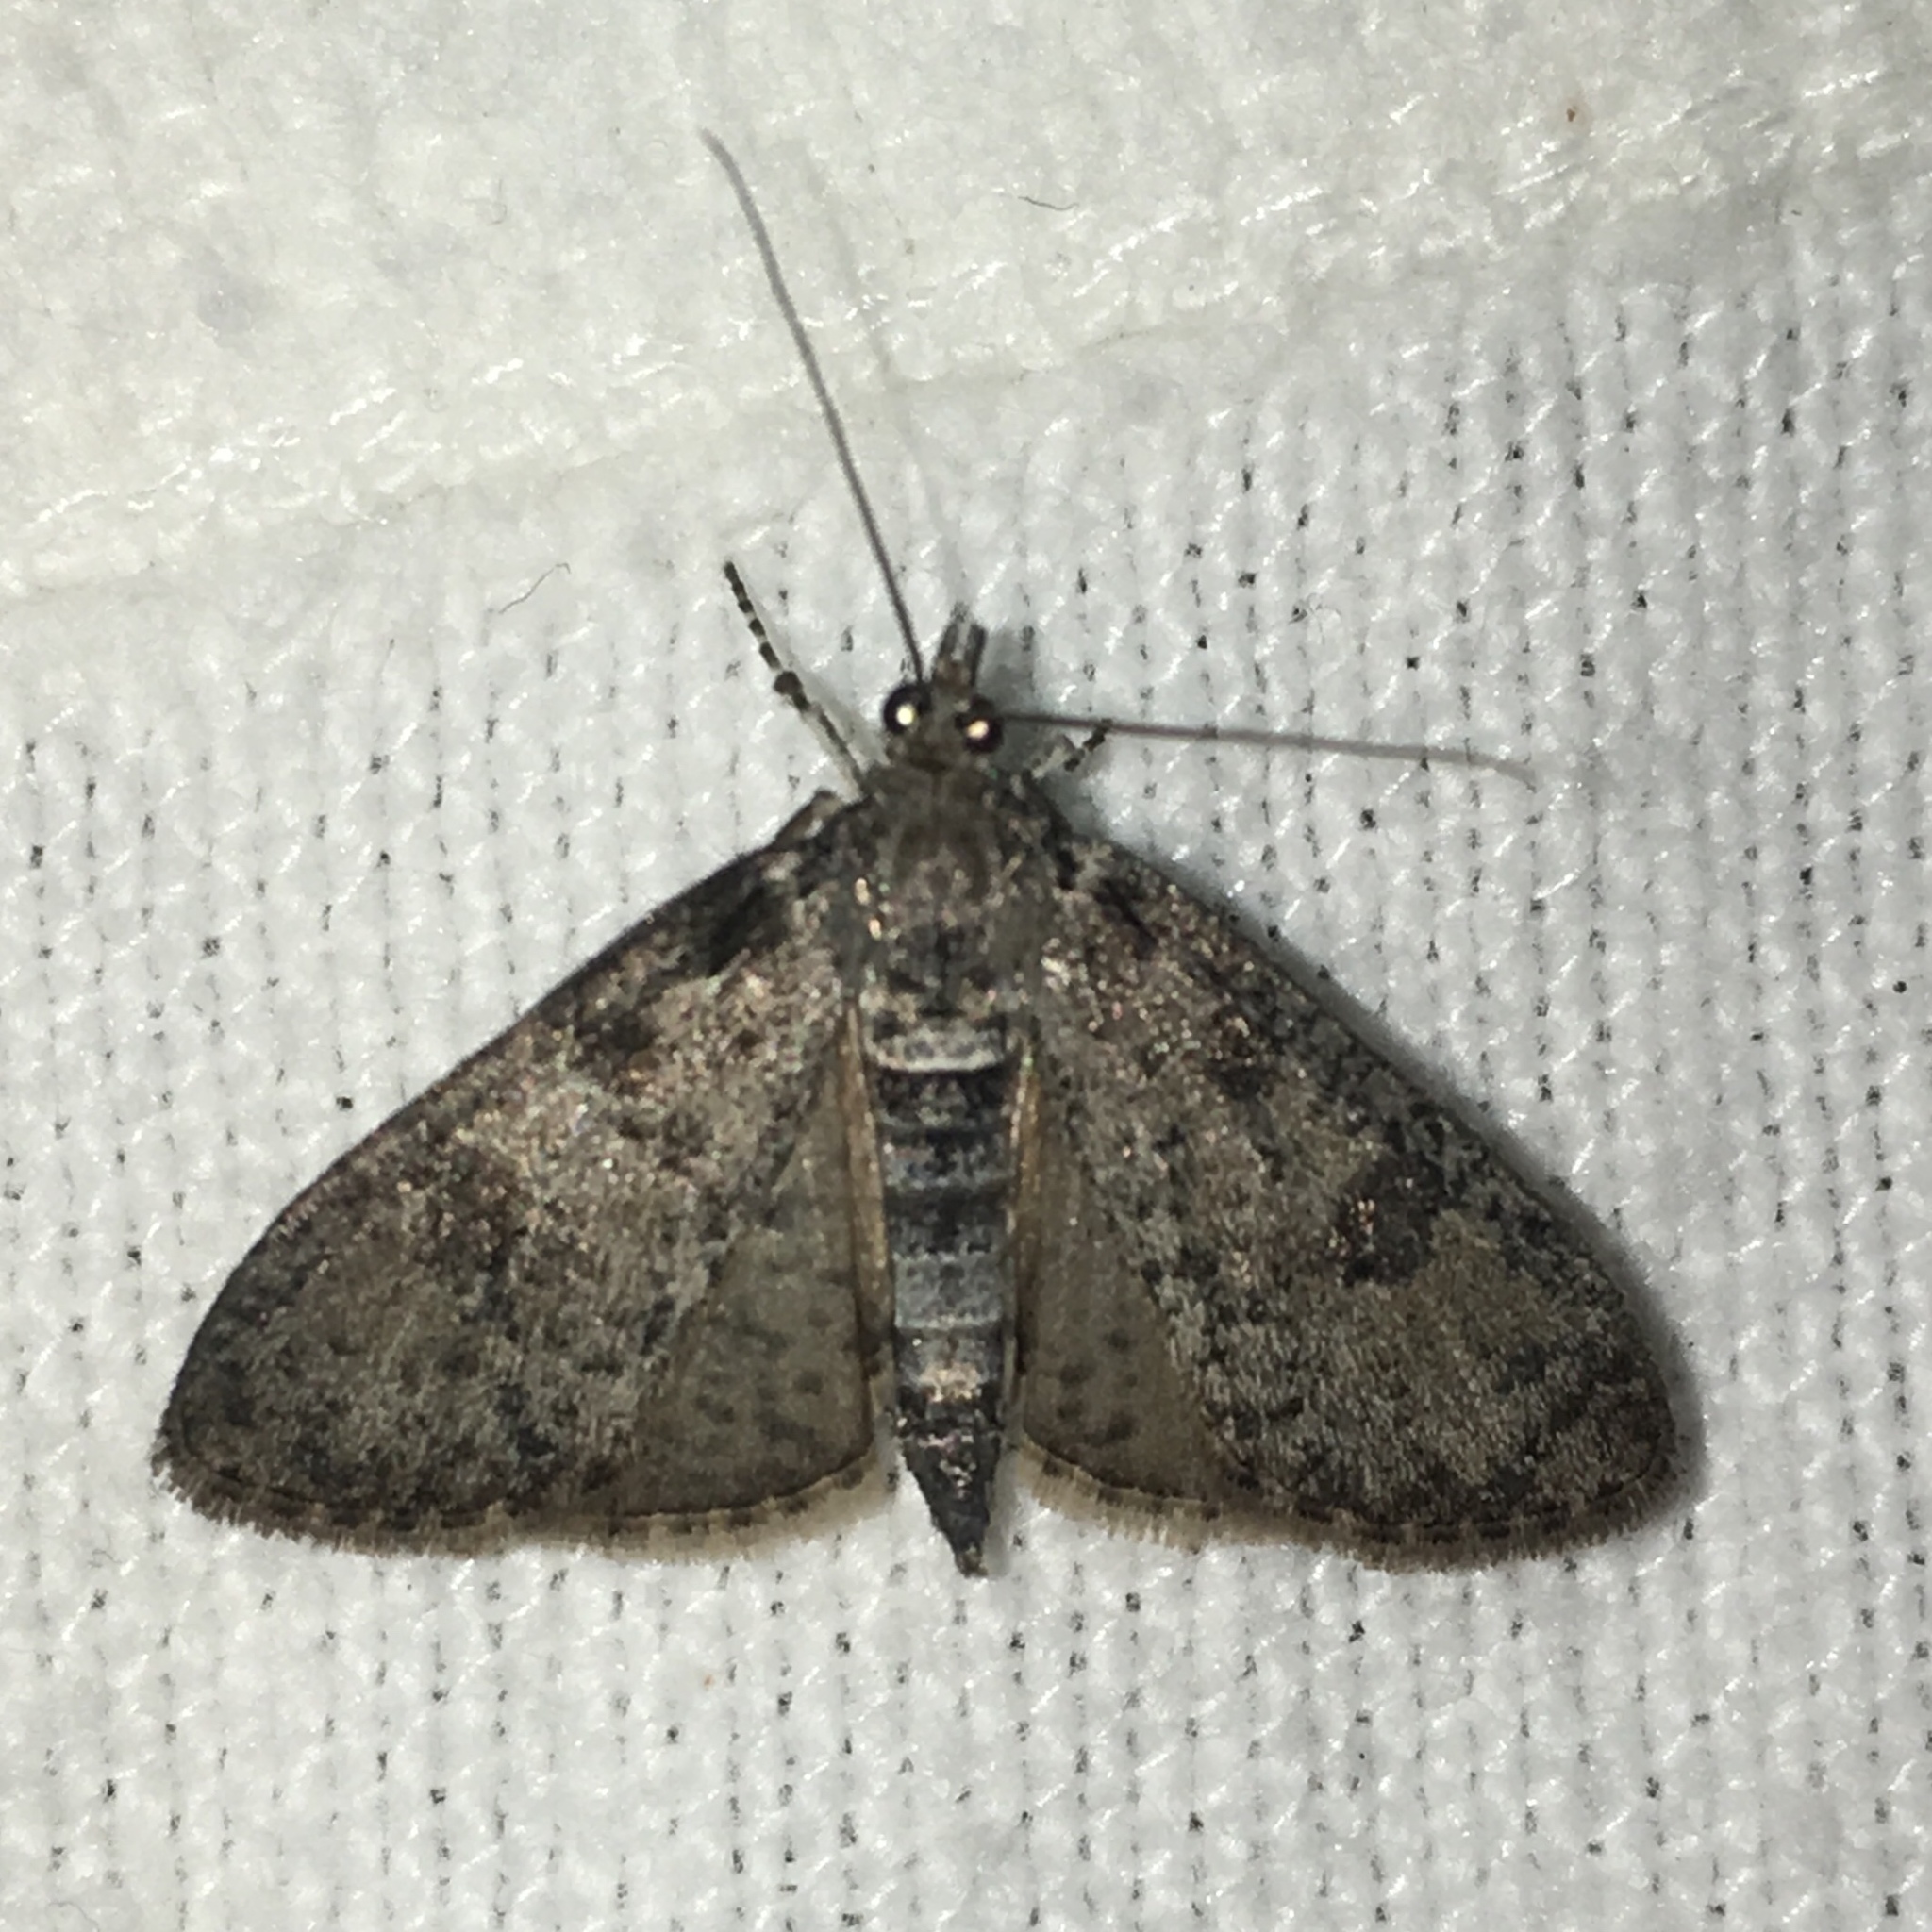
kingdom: Animalia
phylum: Arthropoda
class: Insecta
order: Lepidoptera
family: Crambidae
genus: Palpita
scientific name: Palpita aenescentalis
